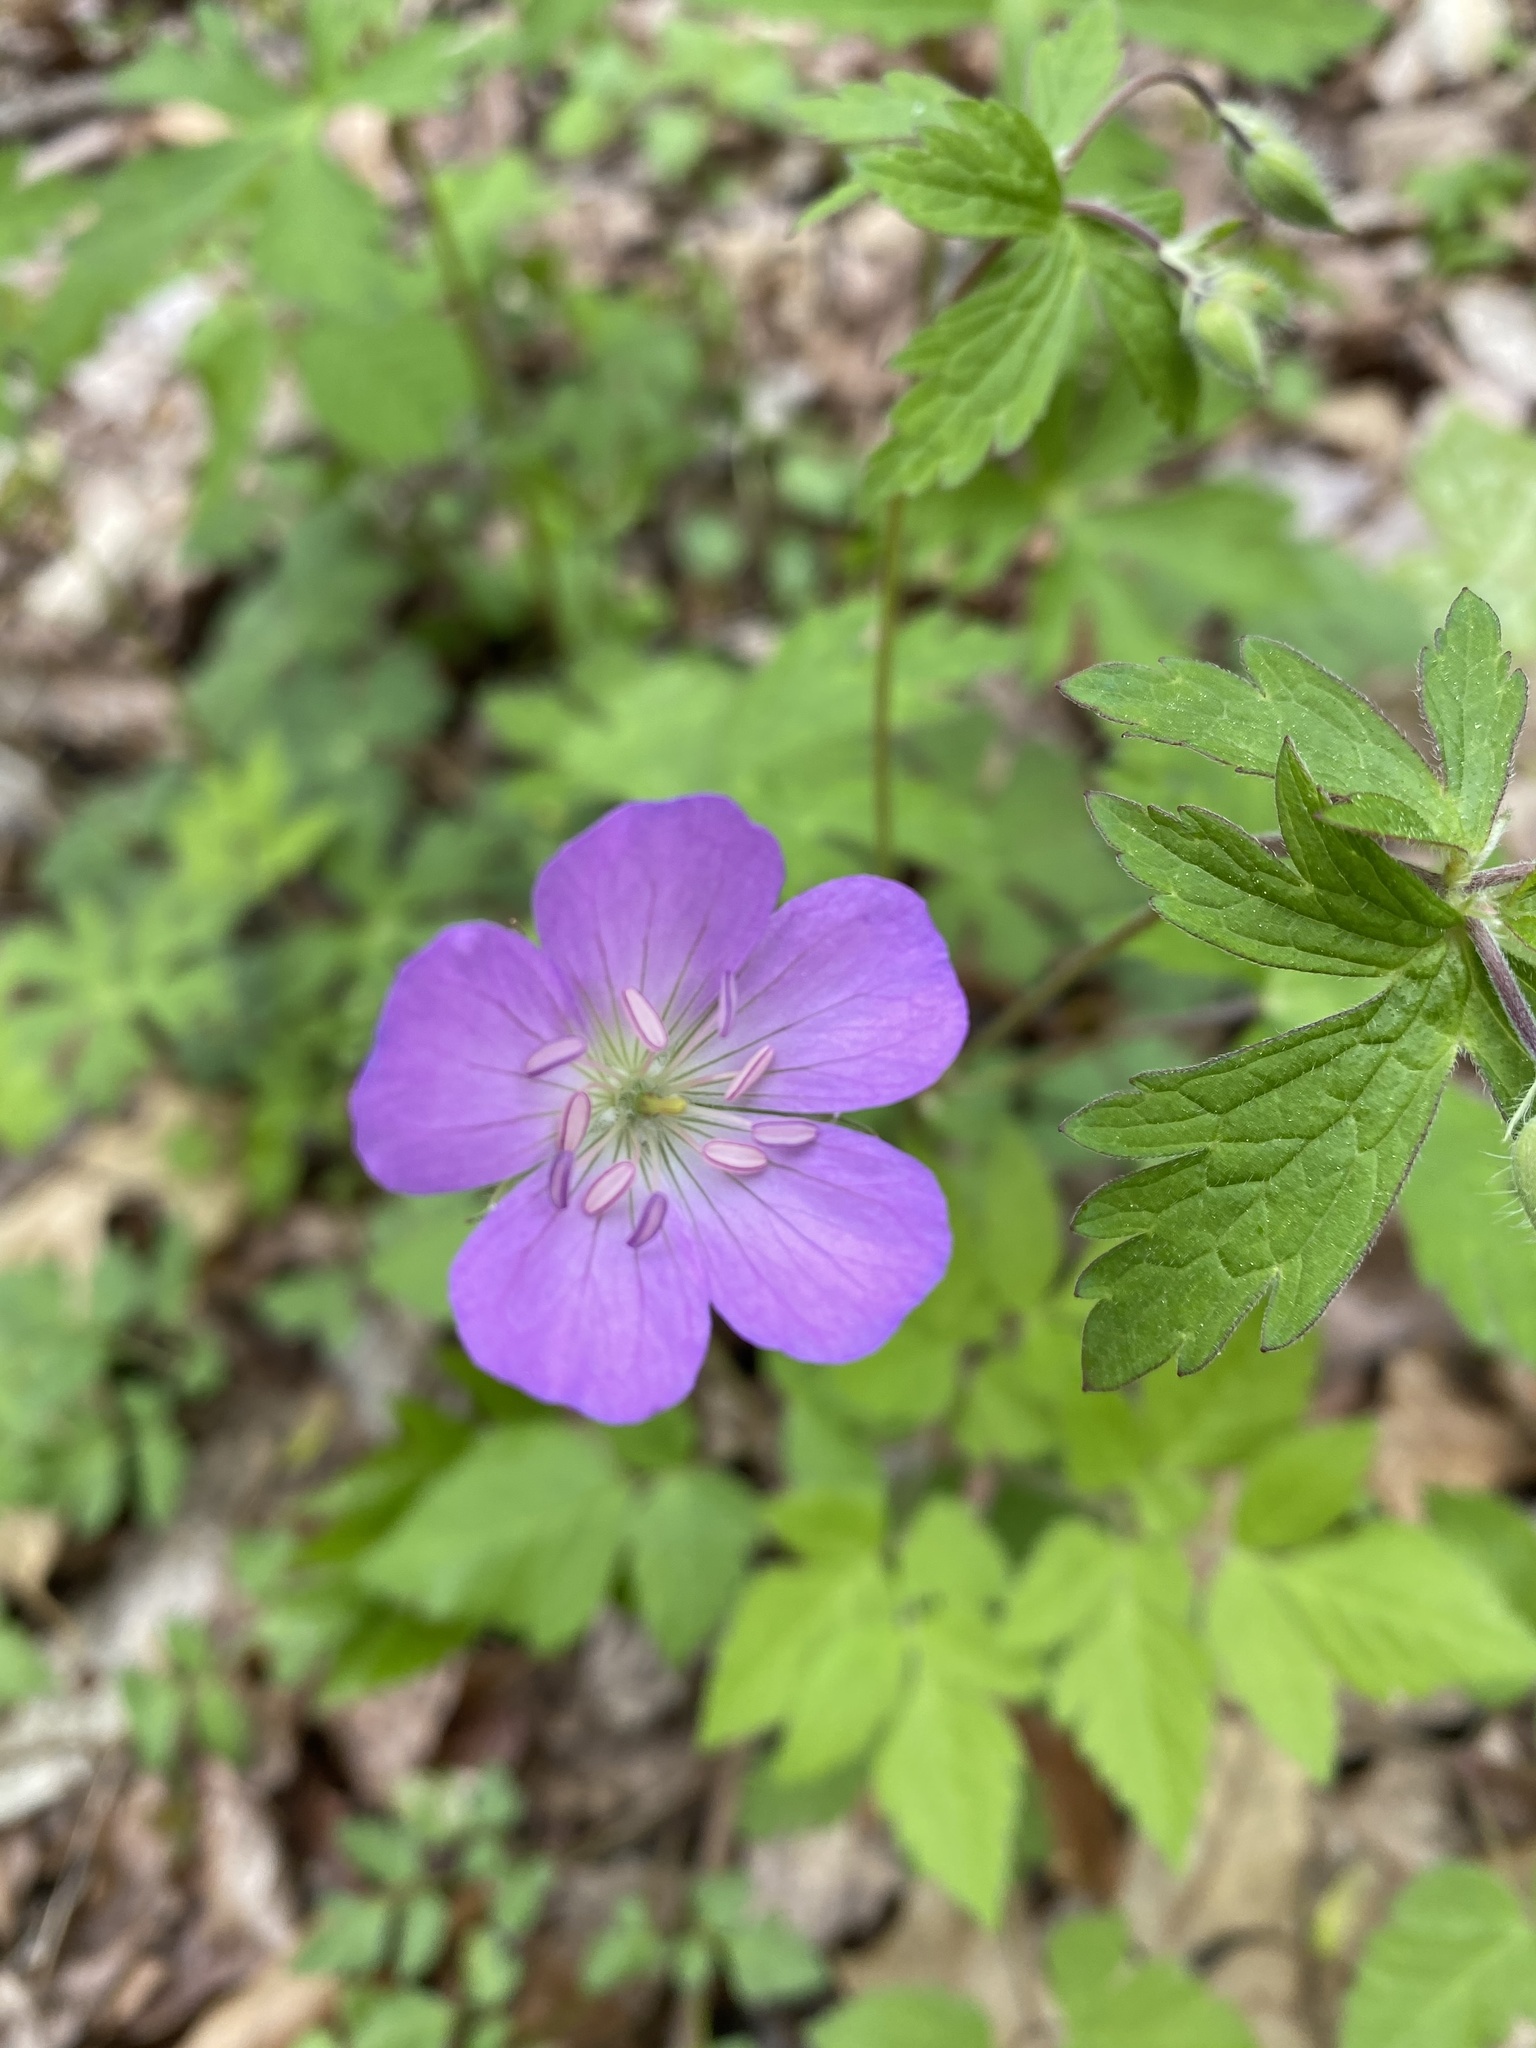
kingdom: Plantae
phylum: Tracheophyta
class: Magnoliopsida
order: Geraniales
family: Geraniaceae
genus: Geranium
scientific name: Geranium maculatum
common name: Spotted geranium
